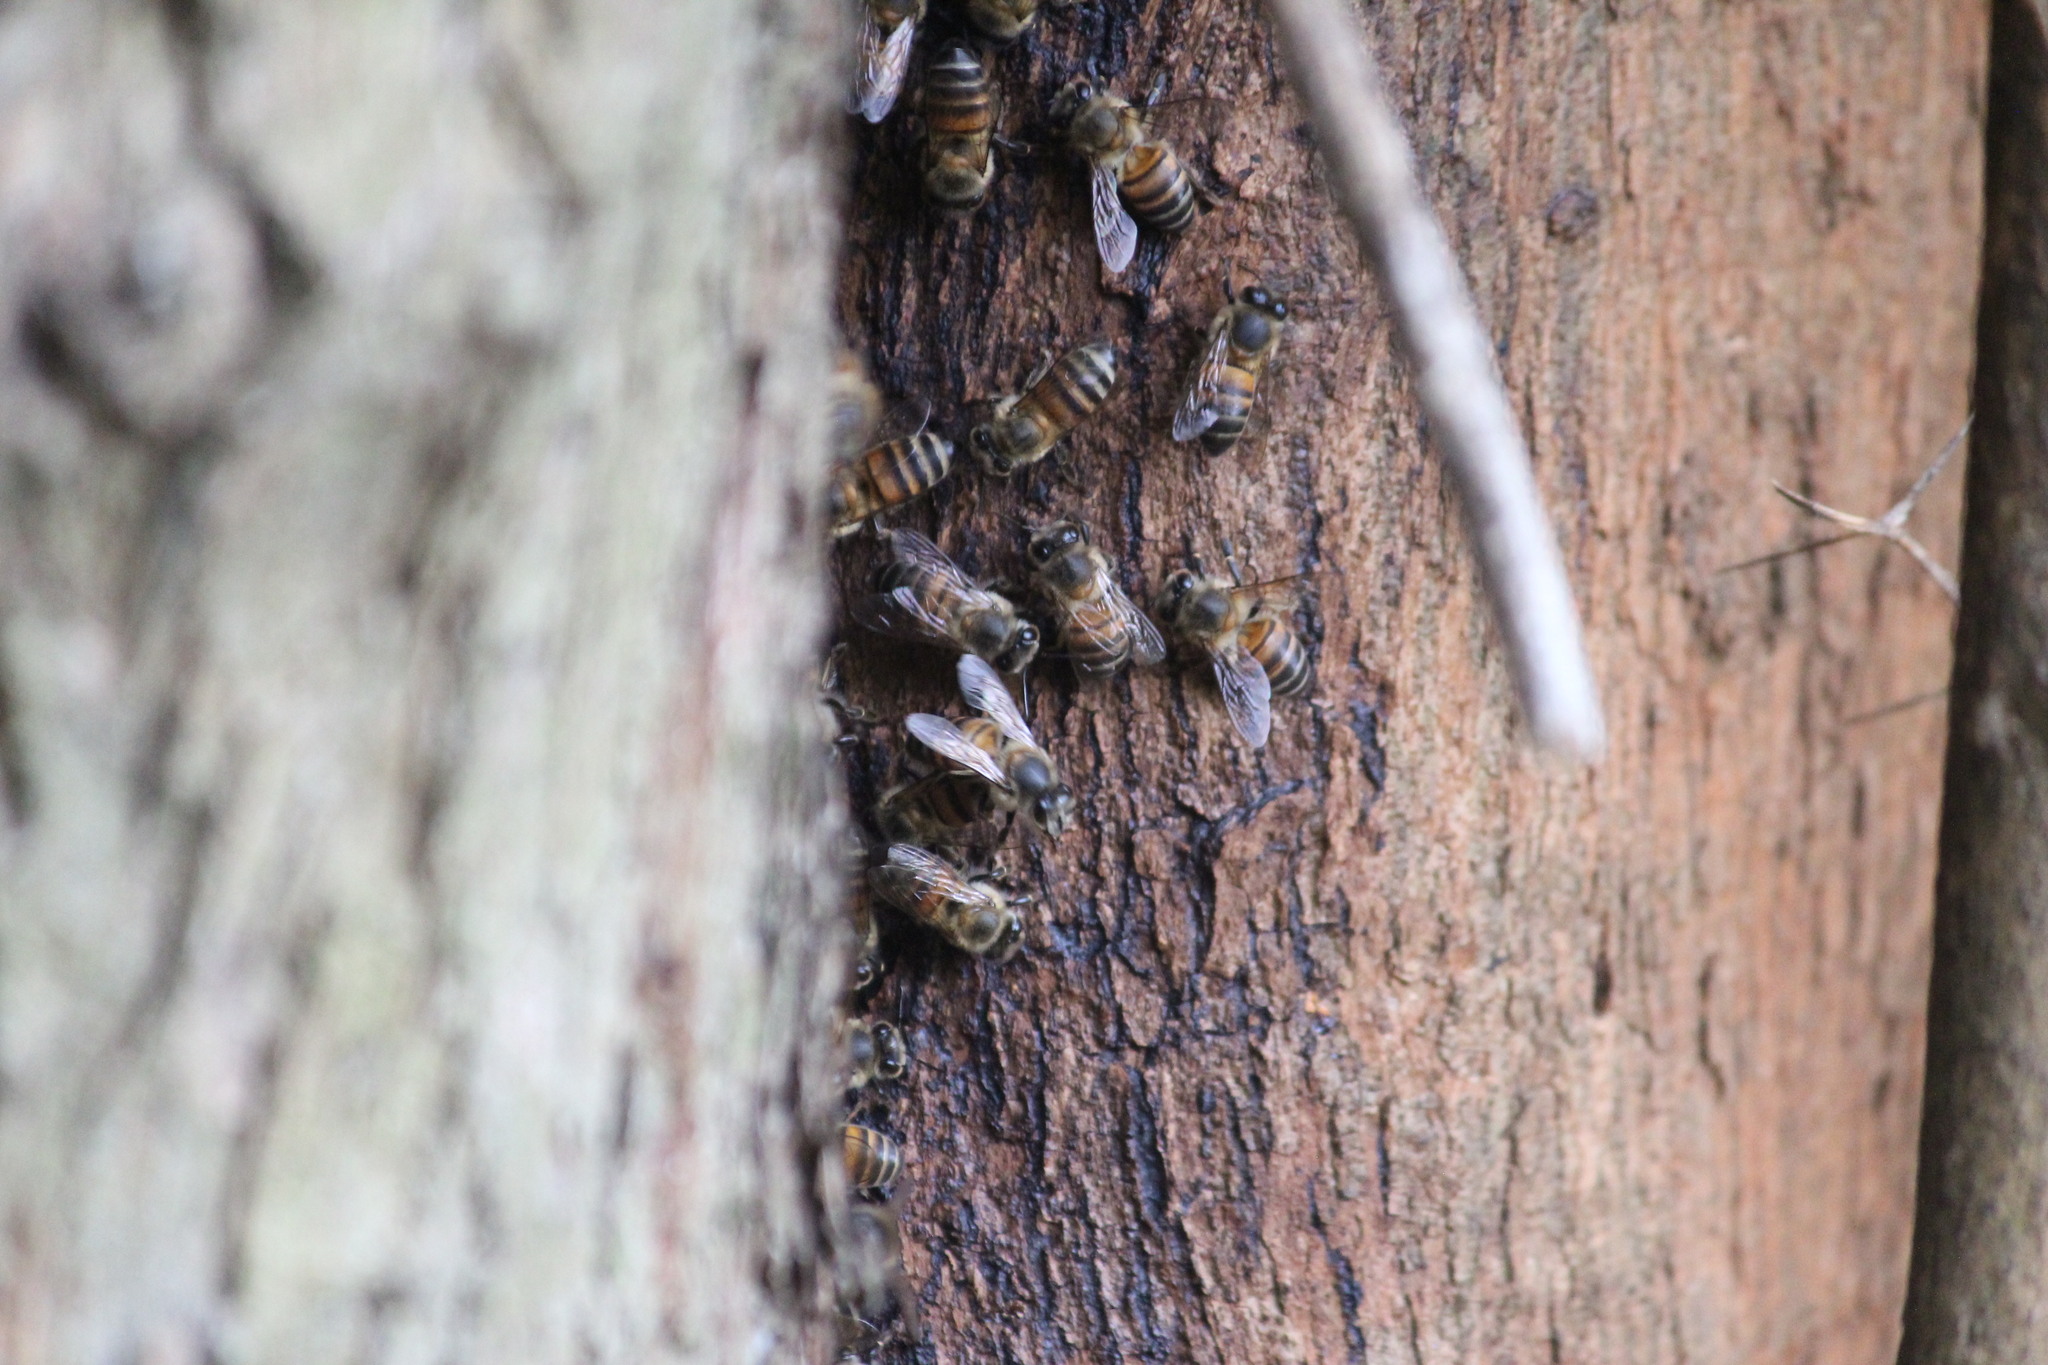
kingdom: Animalia
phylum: Arthropoda
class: Insecta
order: Hymenoptera
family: Apidae
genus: Apis
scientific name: Apis mellifera
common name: Honey bee
